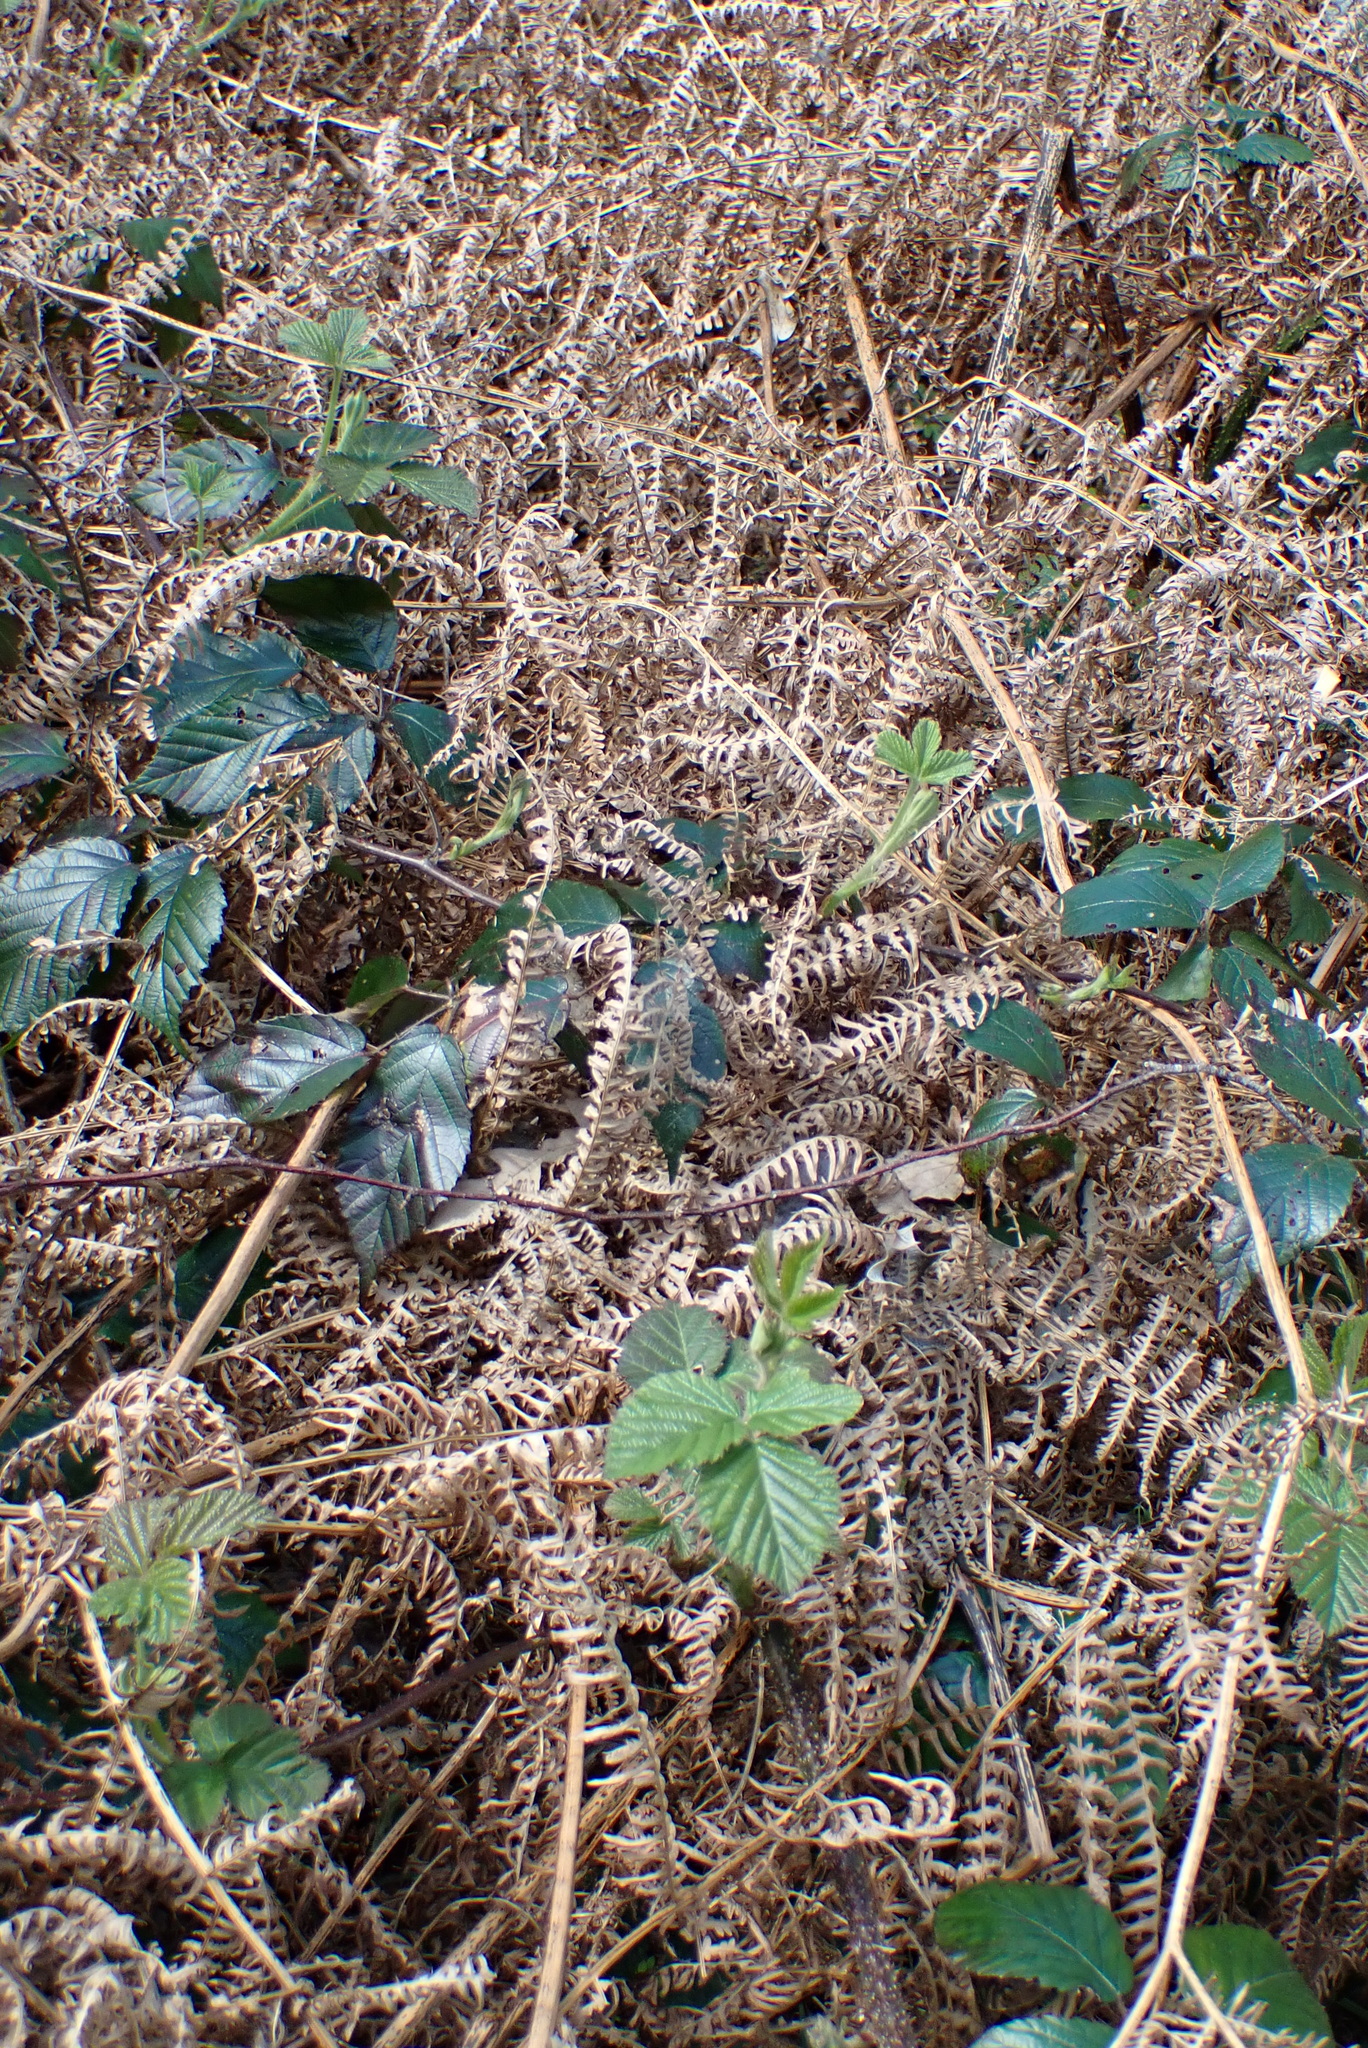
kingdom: Plantae
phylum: Tracheophyta
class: Polypodiopsida
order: Polypodiales
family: Dennstaedtiaceae
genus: Pteridium
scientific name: Pteridium aquilinum
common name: Bracken
